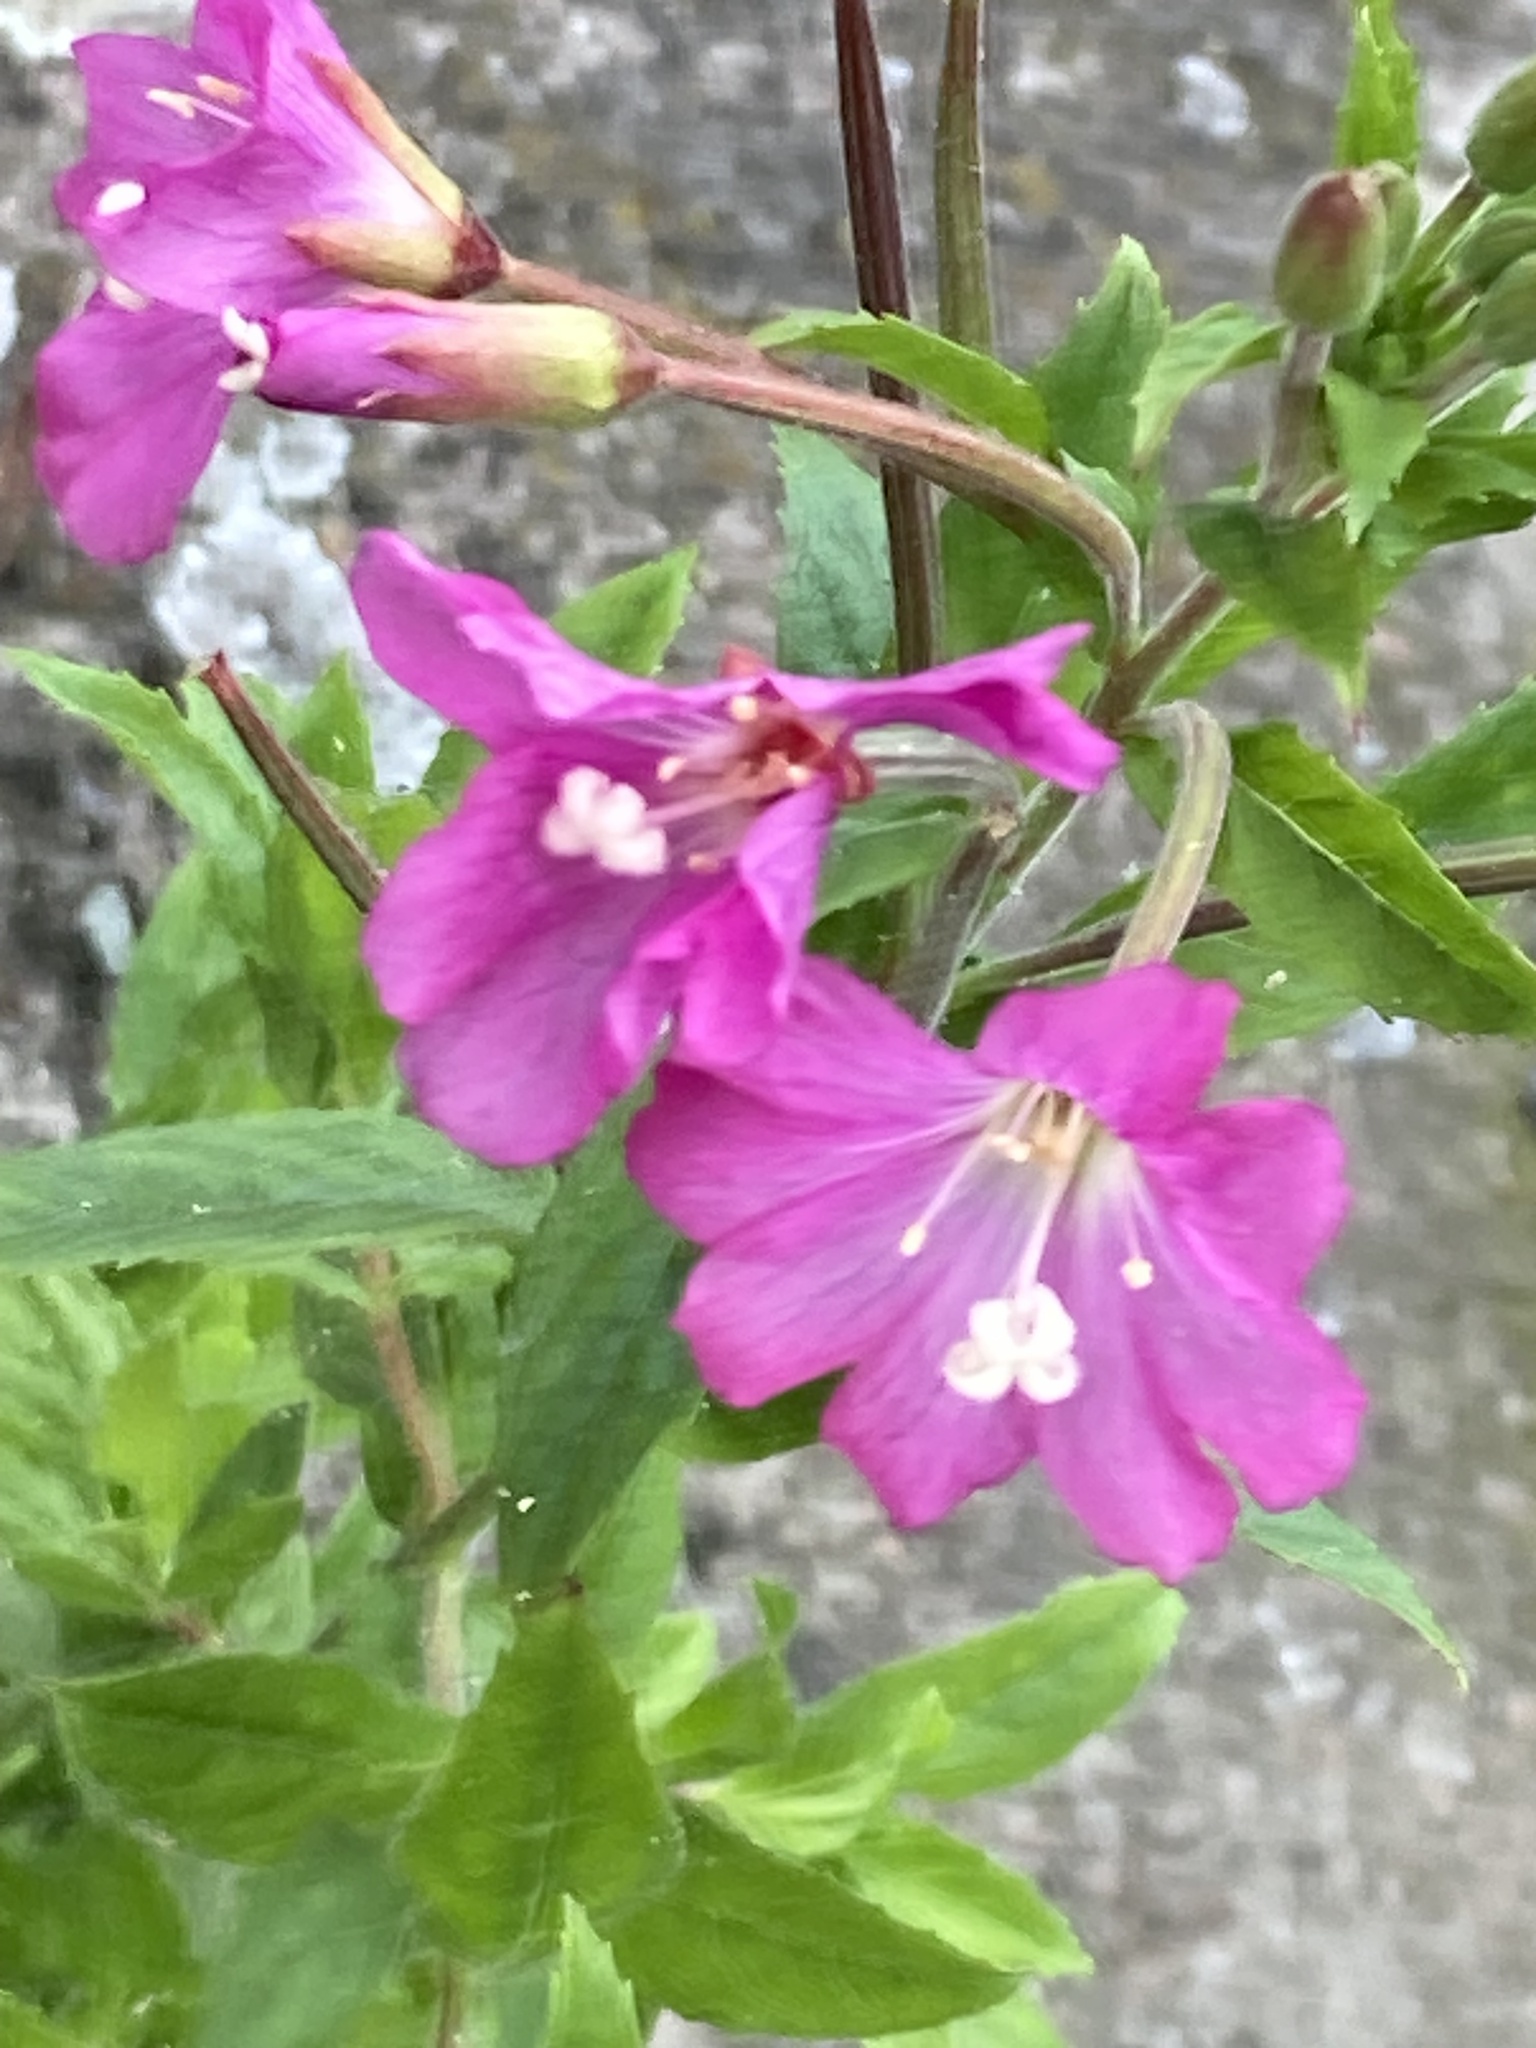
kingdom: Plantae
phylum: Tracheophyta
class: Magnoliopsida
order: Myrtales
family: Onagraceae
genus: Epilobium
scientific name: Epilobium hirsutum
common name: Great willowherb
